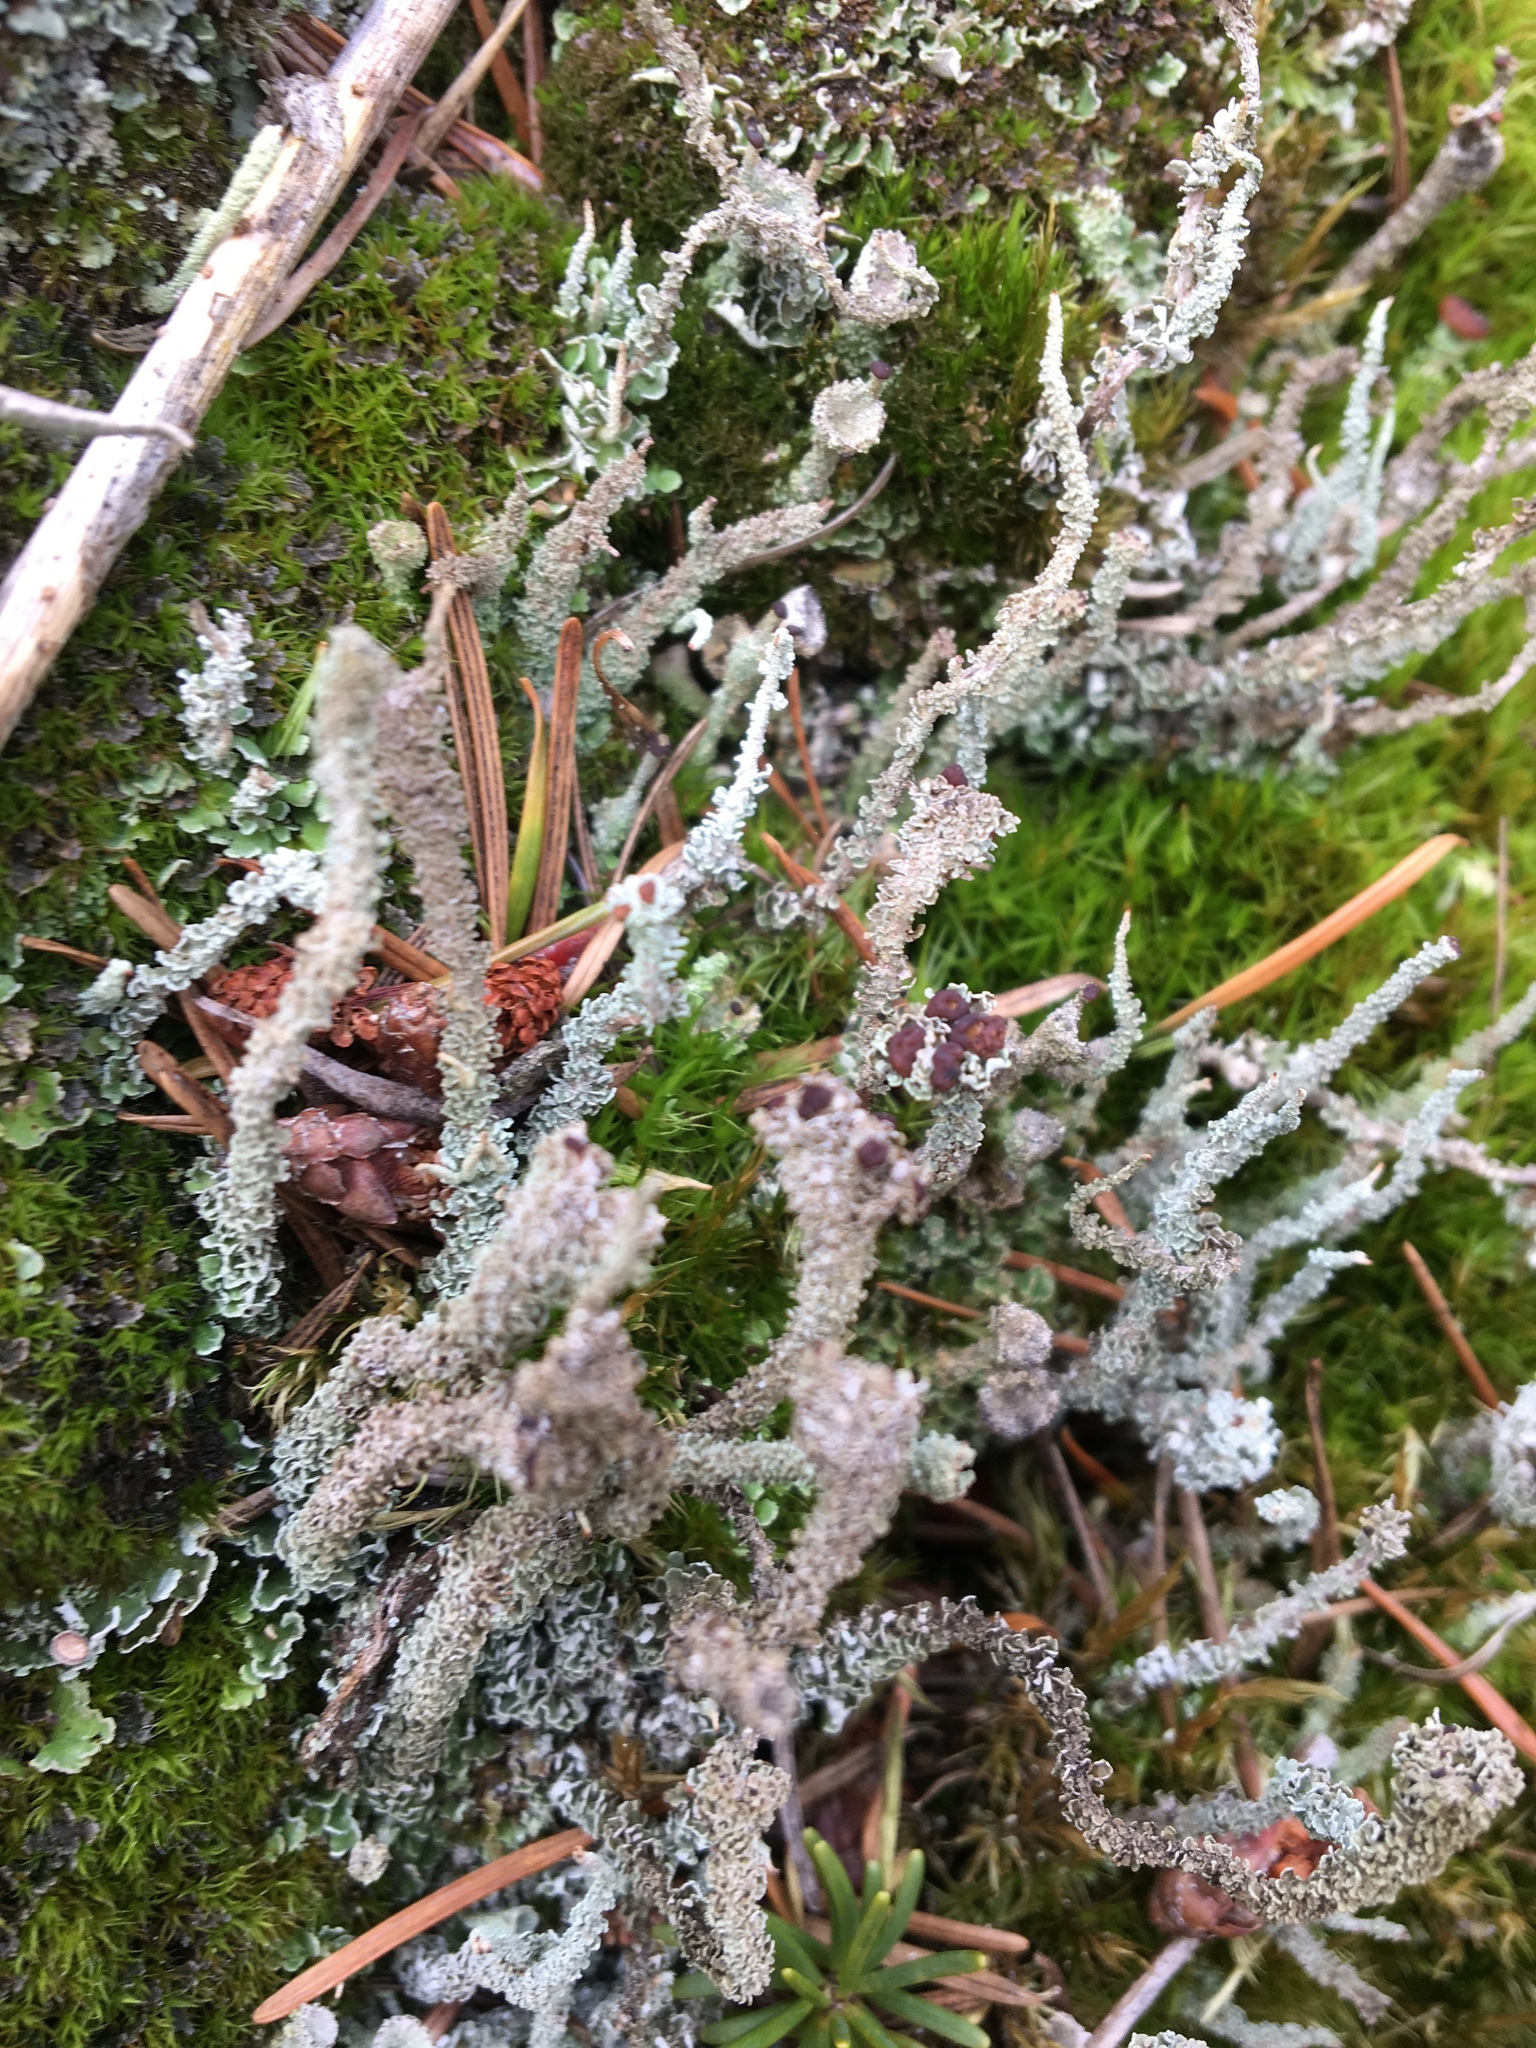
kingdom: Fungi
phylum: Ascomycota
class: Lecanoromycetes
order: Lecanorales
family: Cladoniaceae
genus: Cladonia
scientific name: Cladonia squamosa
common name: Dragon horn
